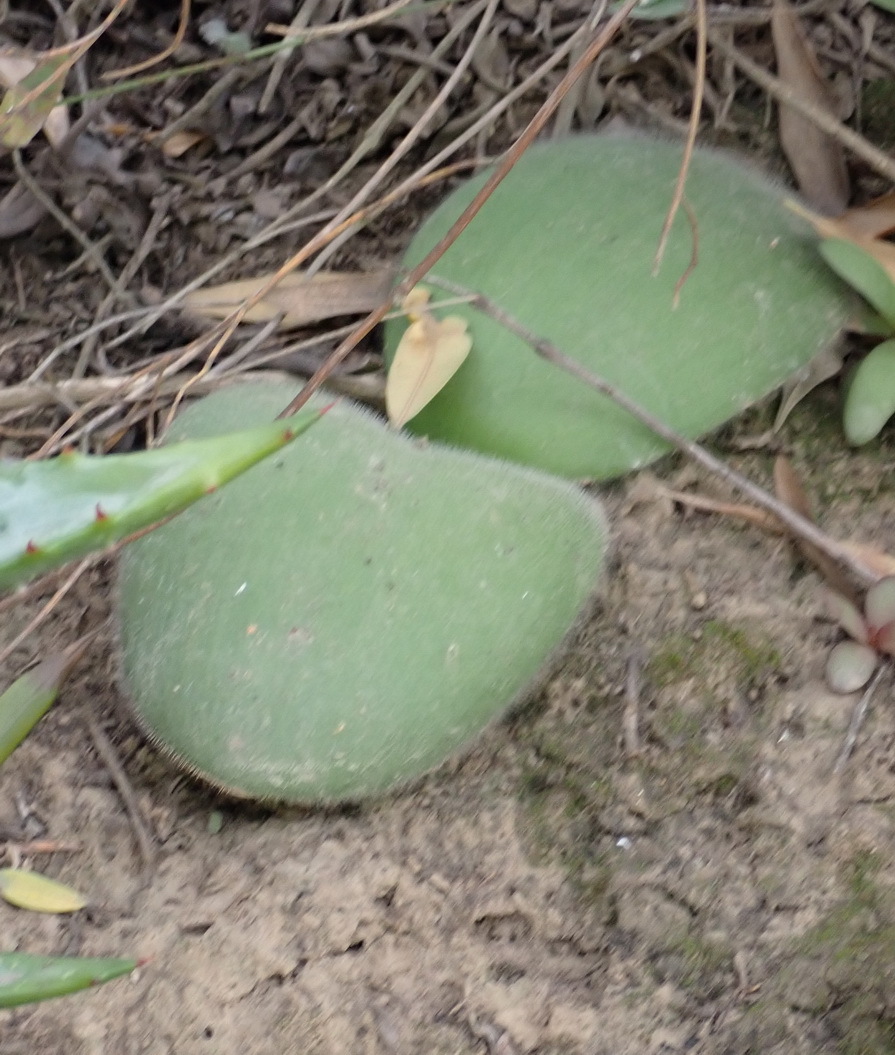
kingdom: Plantae
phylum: Tracheophyta
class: Liliopsida
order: Asparagales
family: Amaryllidaceae
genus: Haemanthus
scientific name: Haemanthus albiflos
